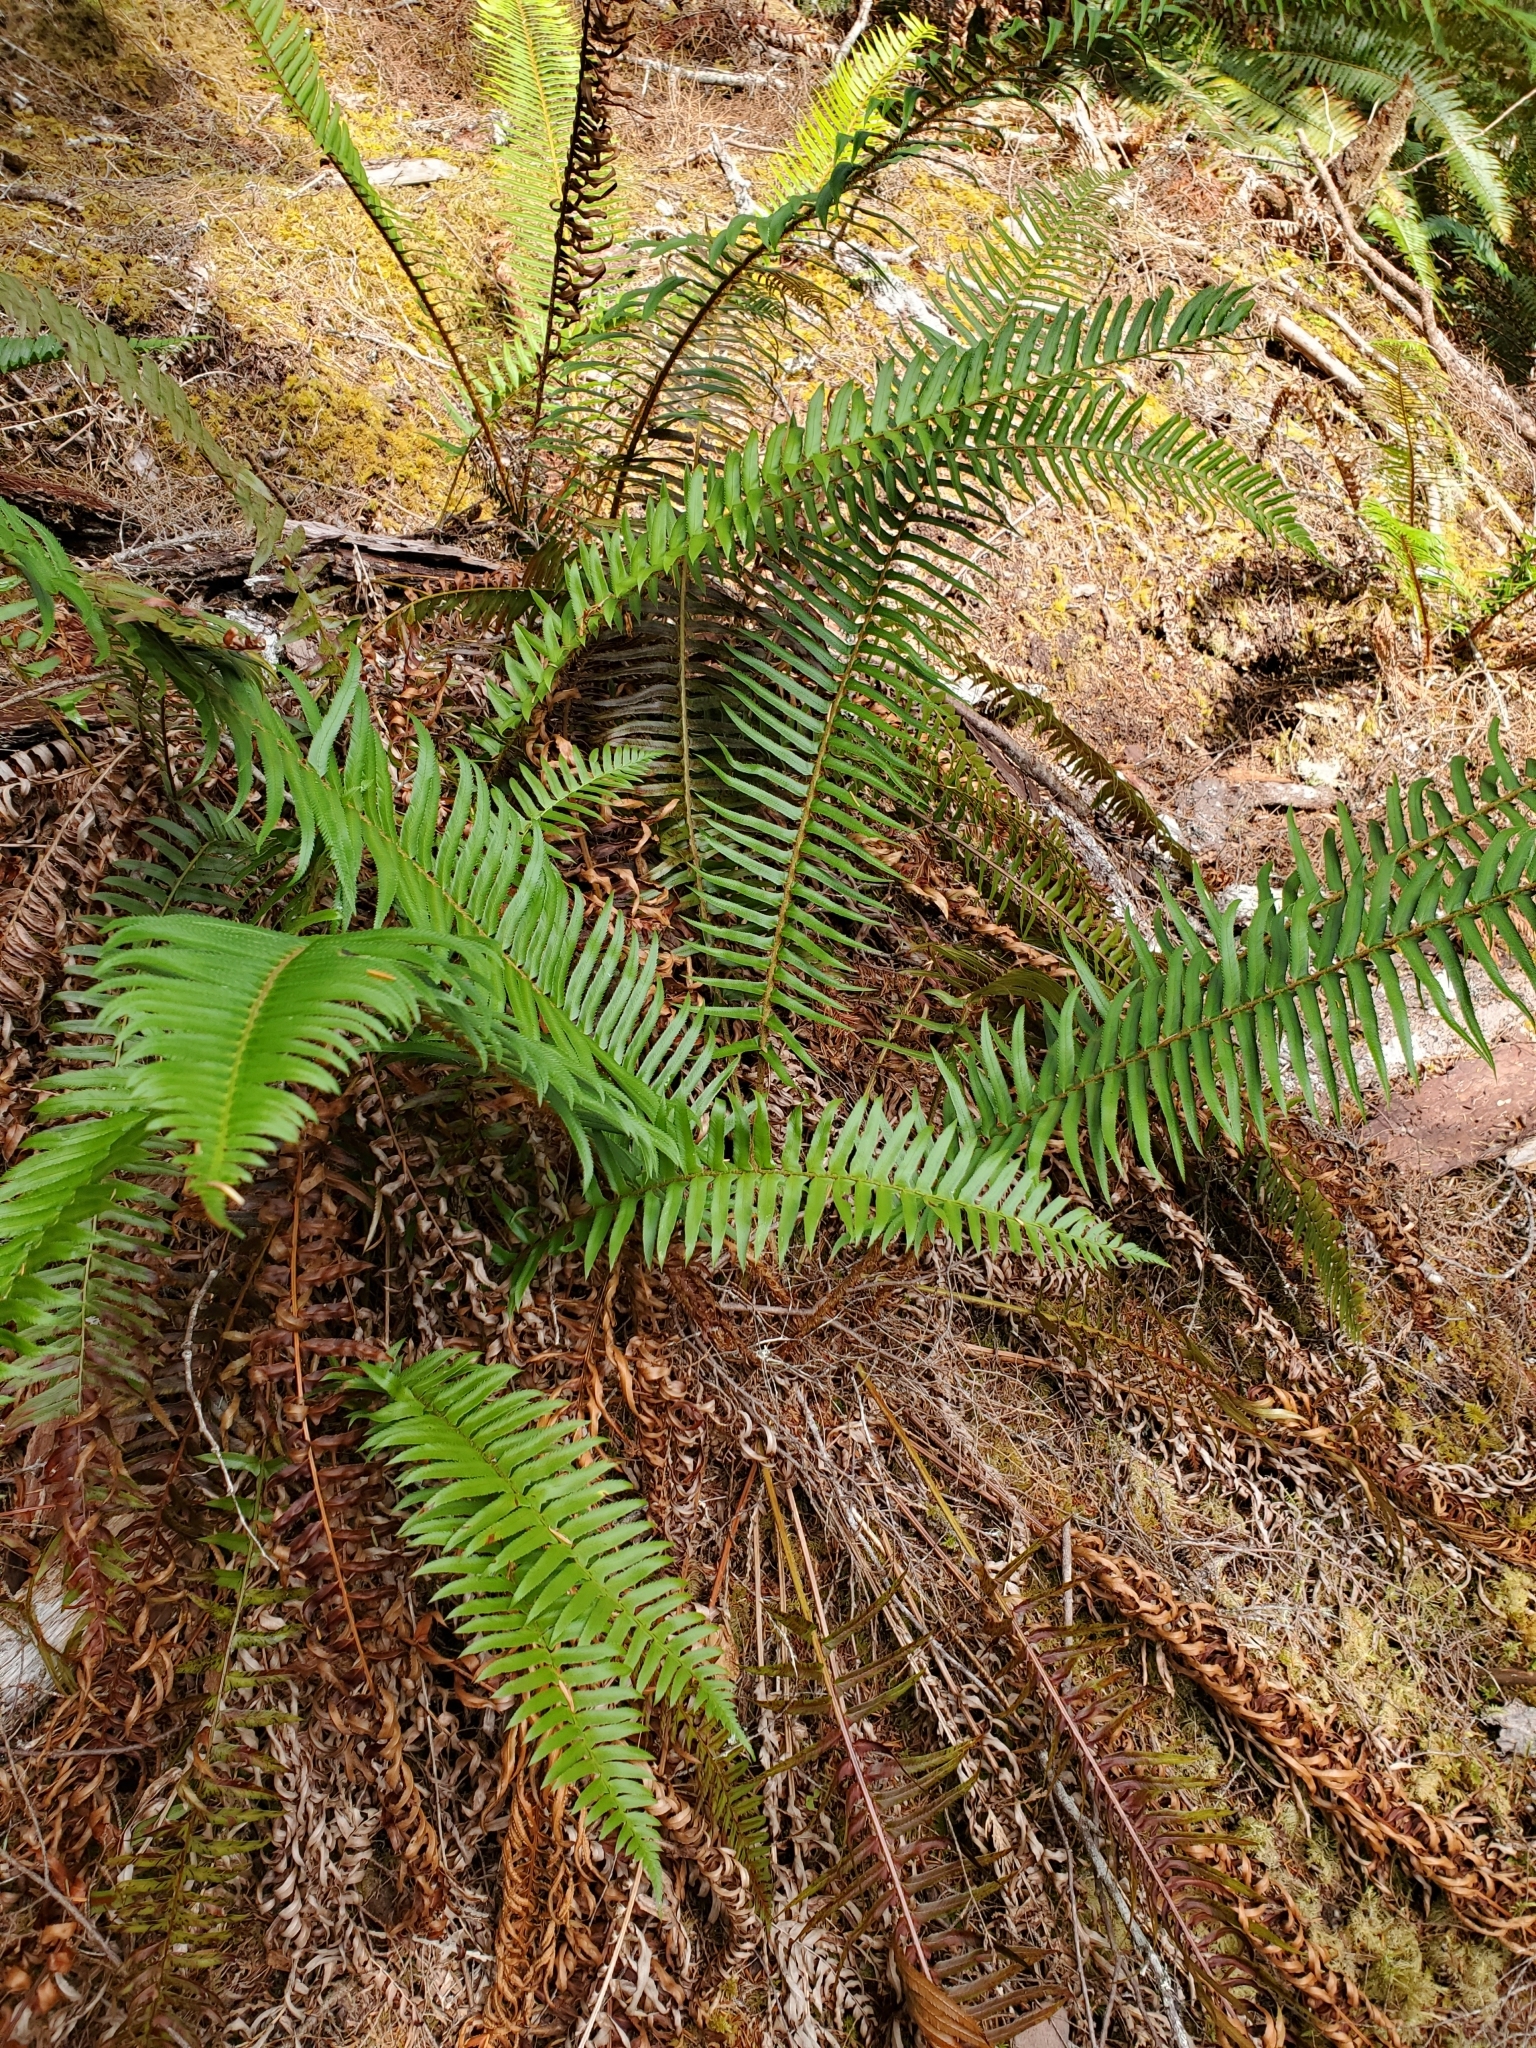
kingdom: Plantae
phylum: Tracheophyta
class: Polypodiopsida
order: Polypodiales
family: Dryopteridaceae
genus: Polystichum
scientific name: Polystichum munitum
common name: Western sword-fern
